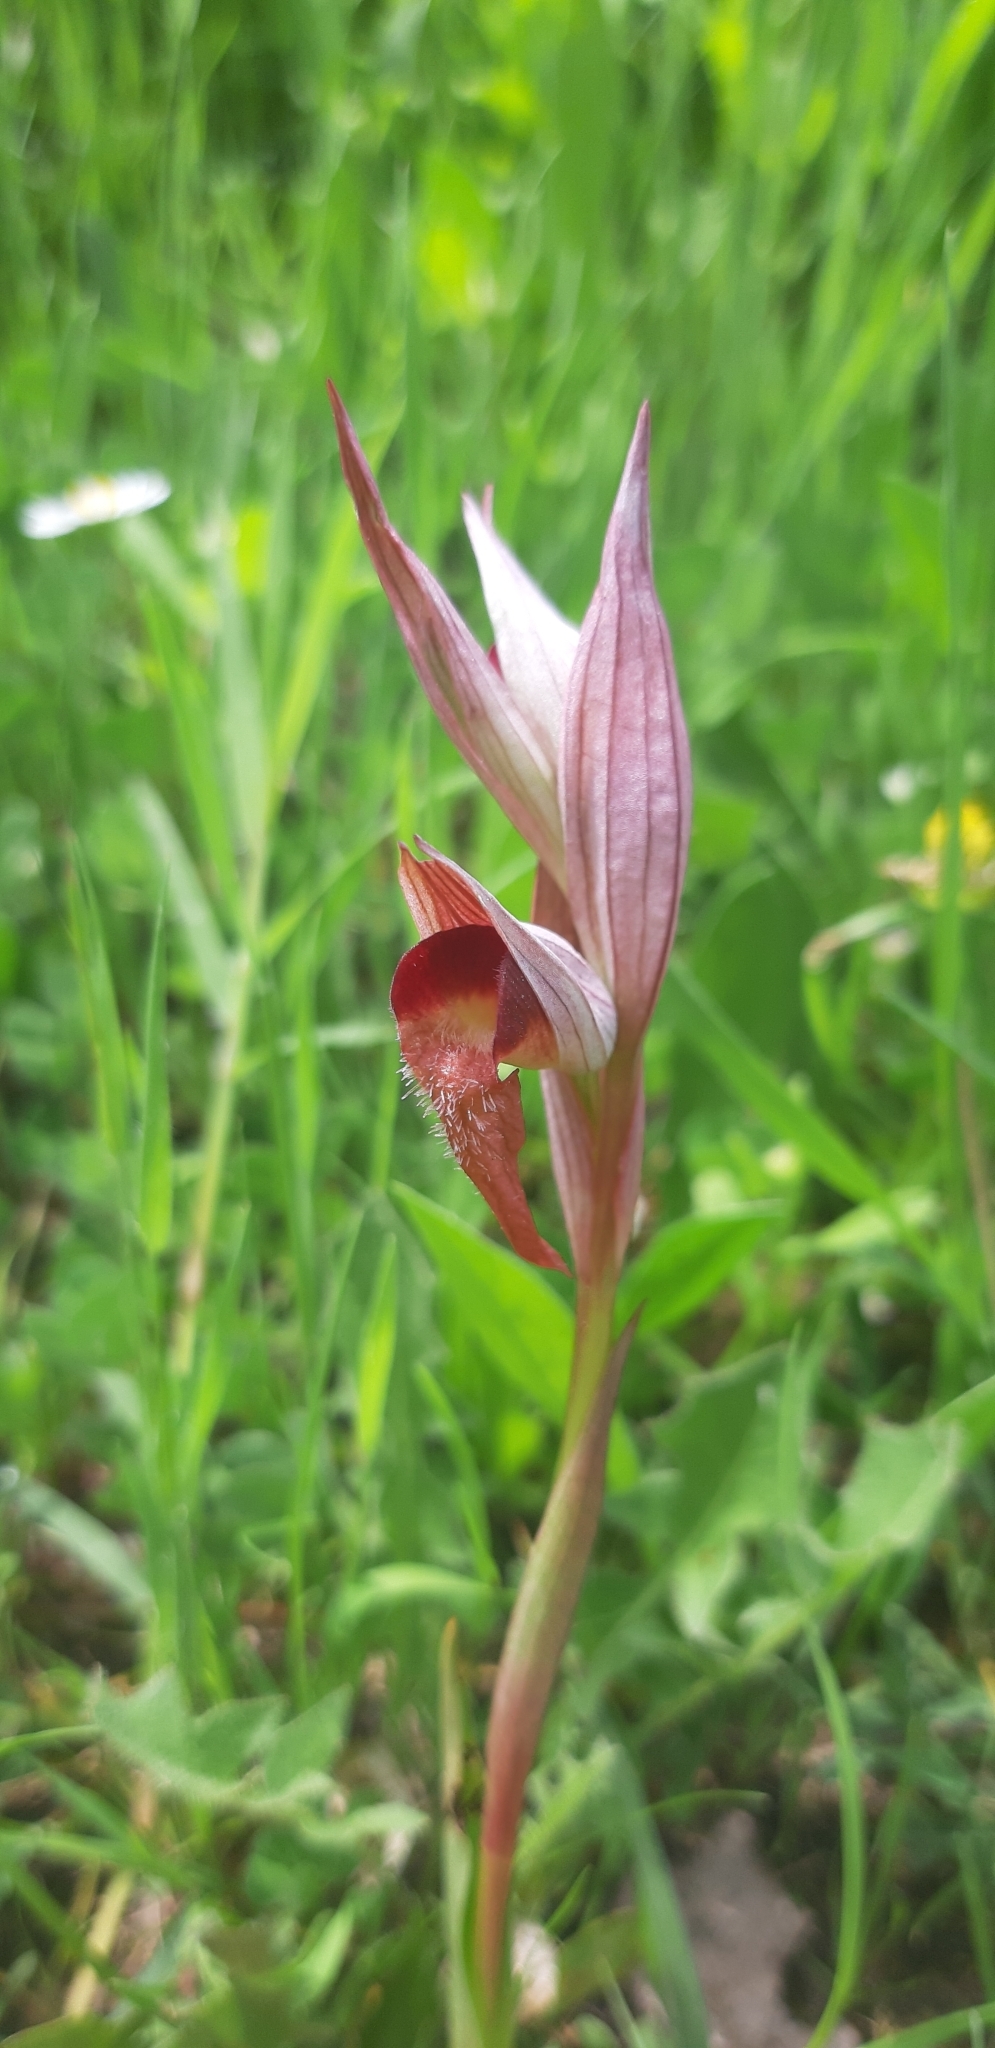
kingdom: Plantae
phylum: Tracheophyta
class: Liliopsida
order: Asparagales
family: Orchidaceae
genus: Serapias
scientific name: Serapias vomeracea
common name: Long-lipped tongue-orchid
